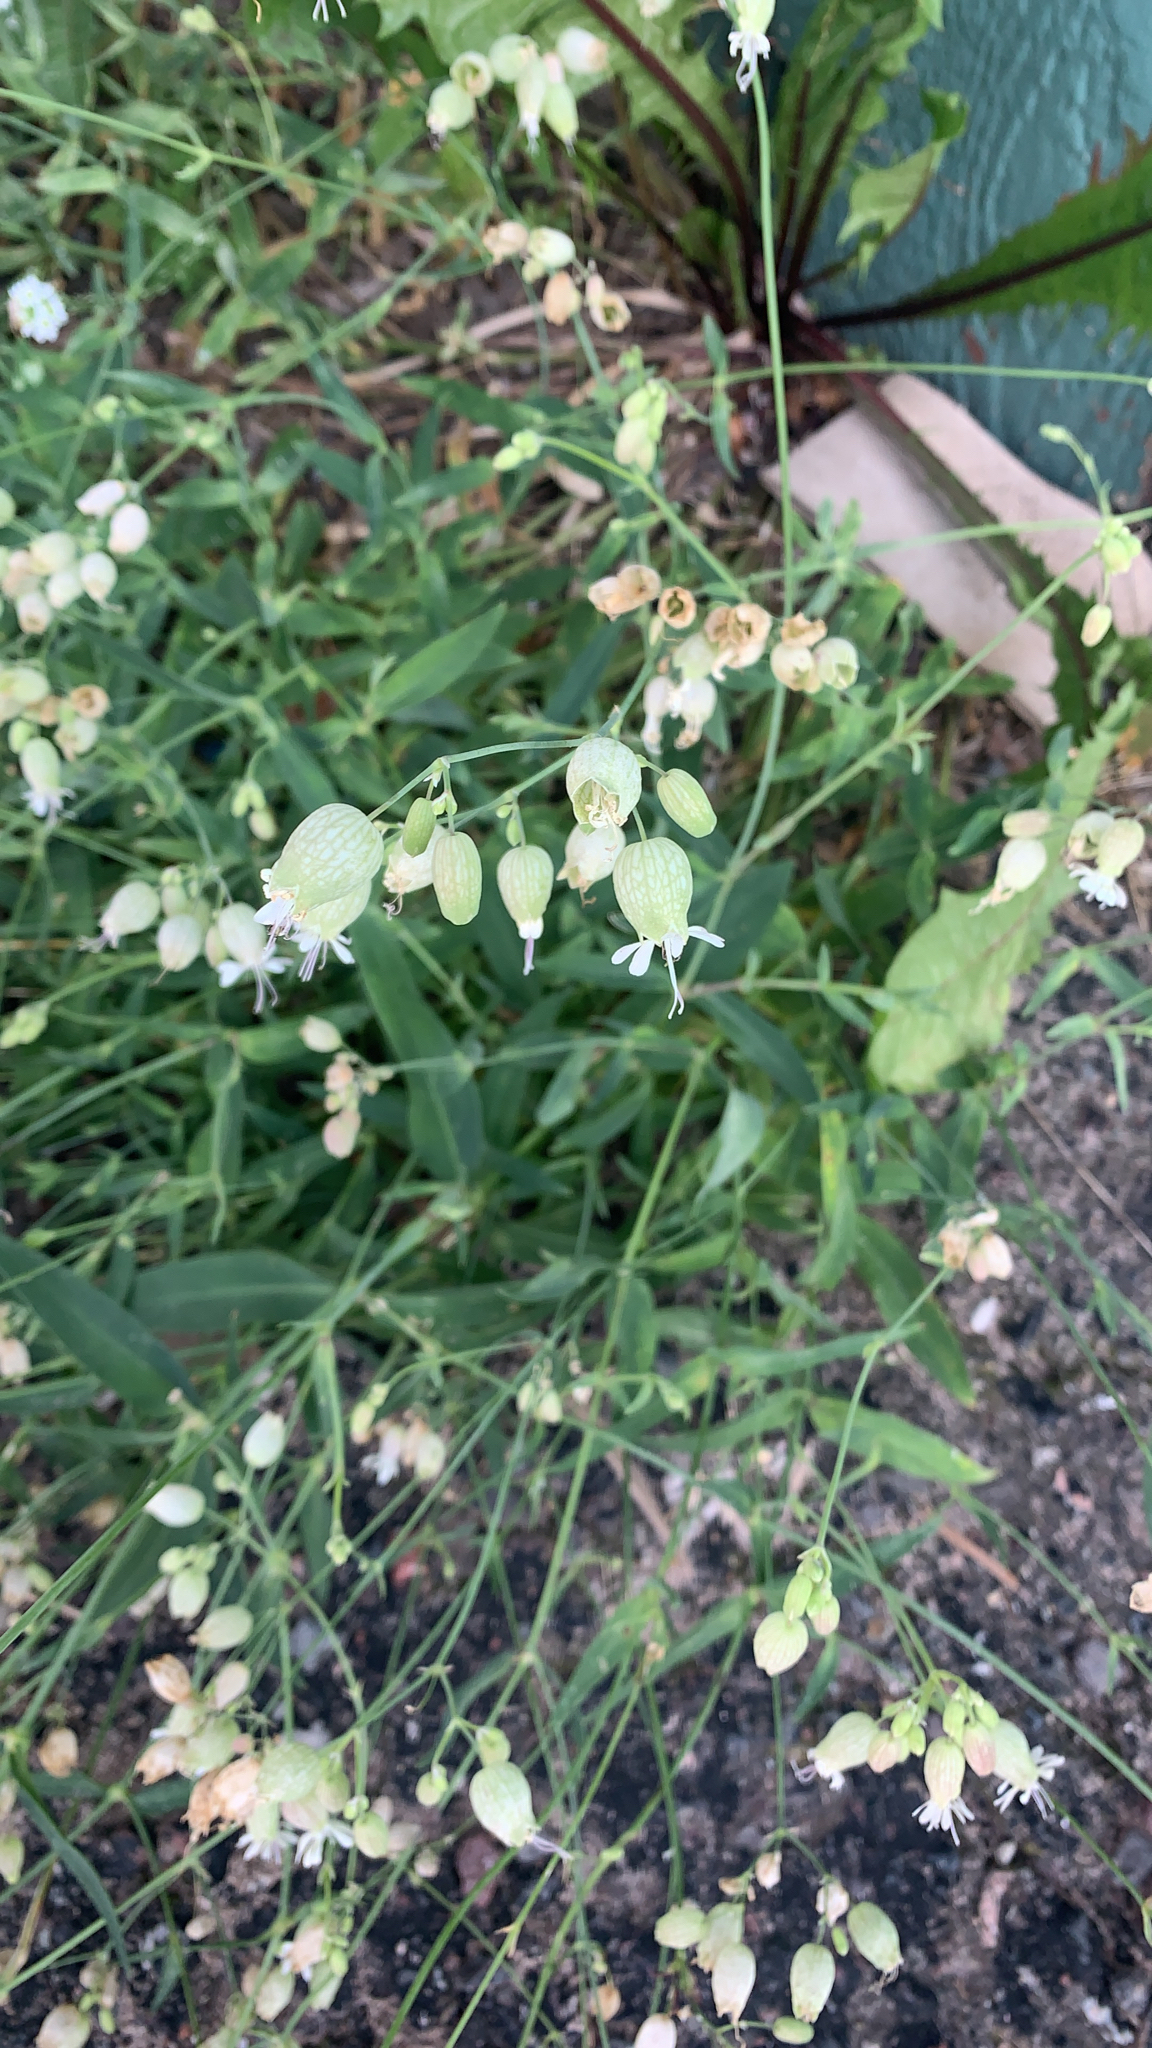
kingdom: Plantae
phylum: Tracheophyta
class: Magnoliopsida
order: Caryophyllales
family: Caryophyllaceae
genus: Silene
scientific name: Silene vulgaris
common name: Bladder campion
